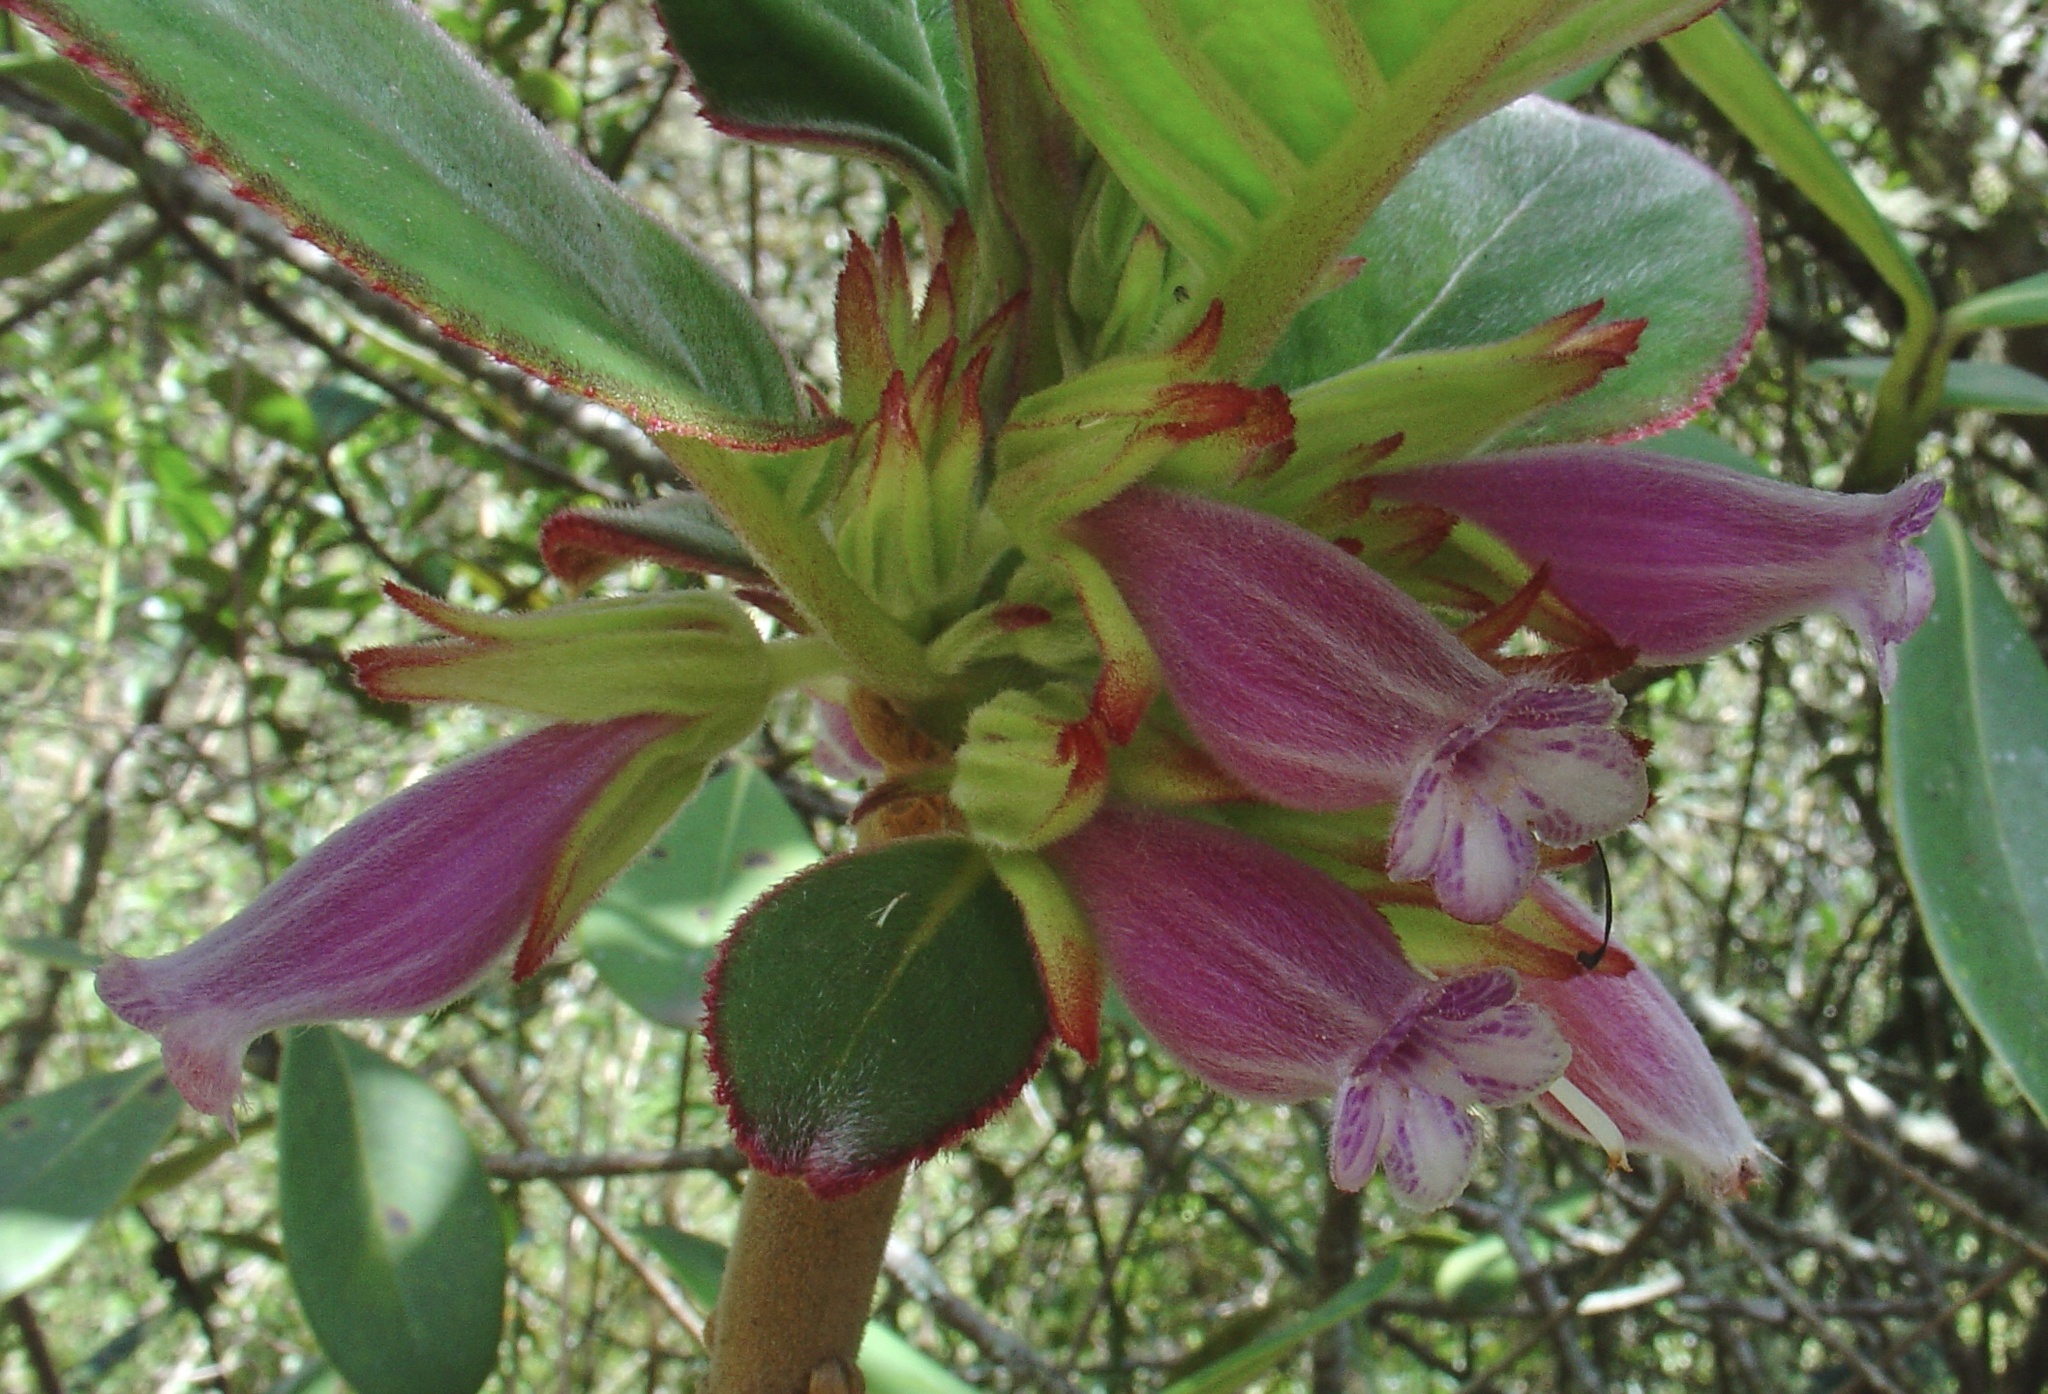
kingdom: Plantae
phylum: Tracheophyta
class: Magnoliopsida
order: Lamiales
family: Gesneriaceae
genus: Columnea
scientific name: Columnea lophophora
